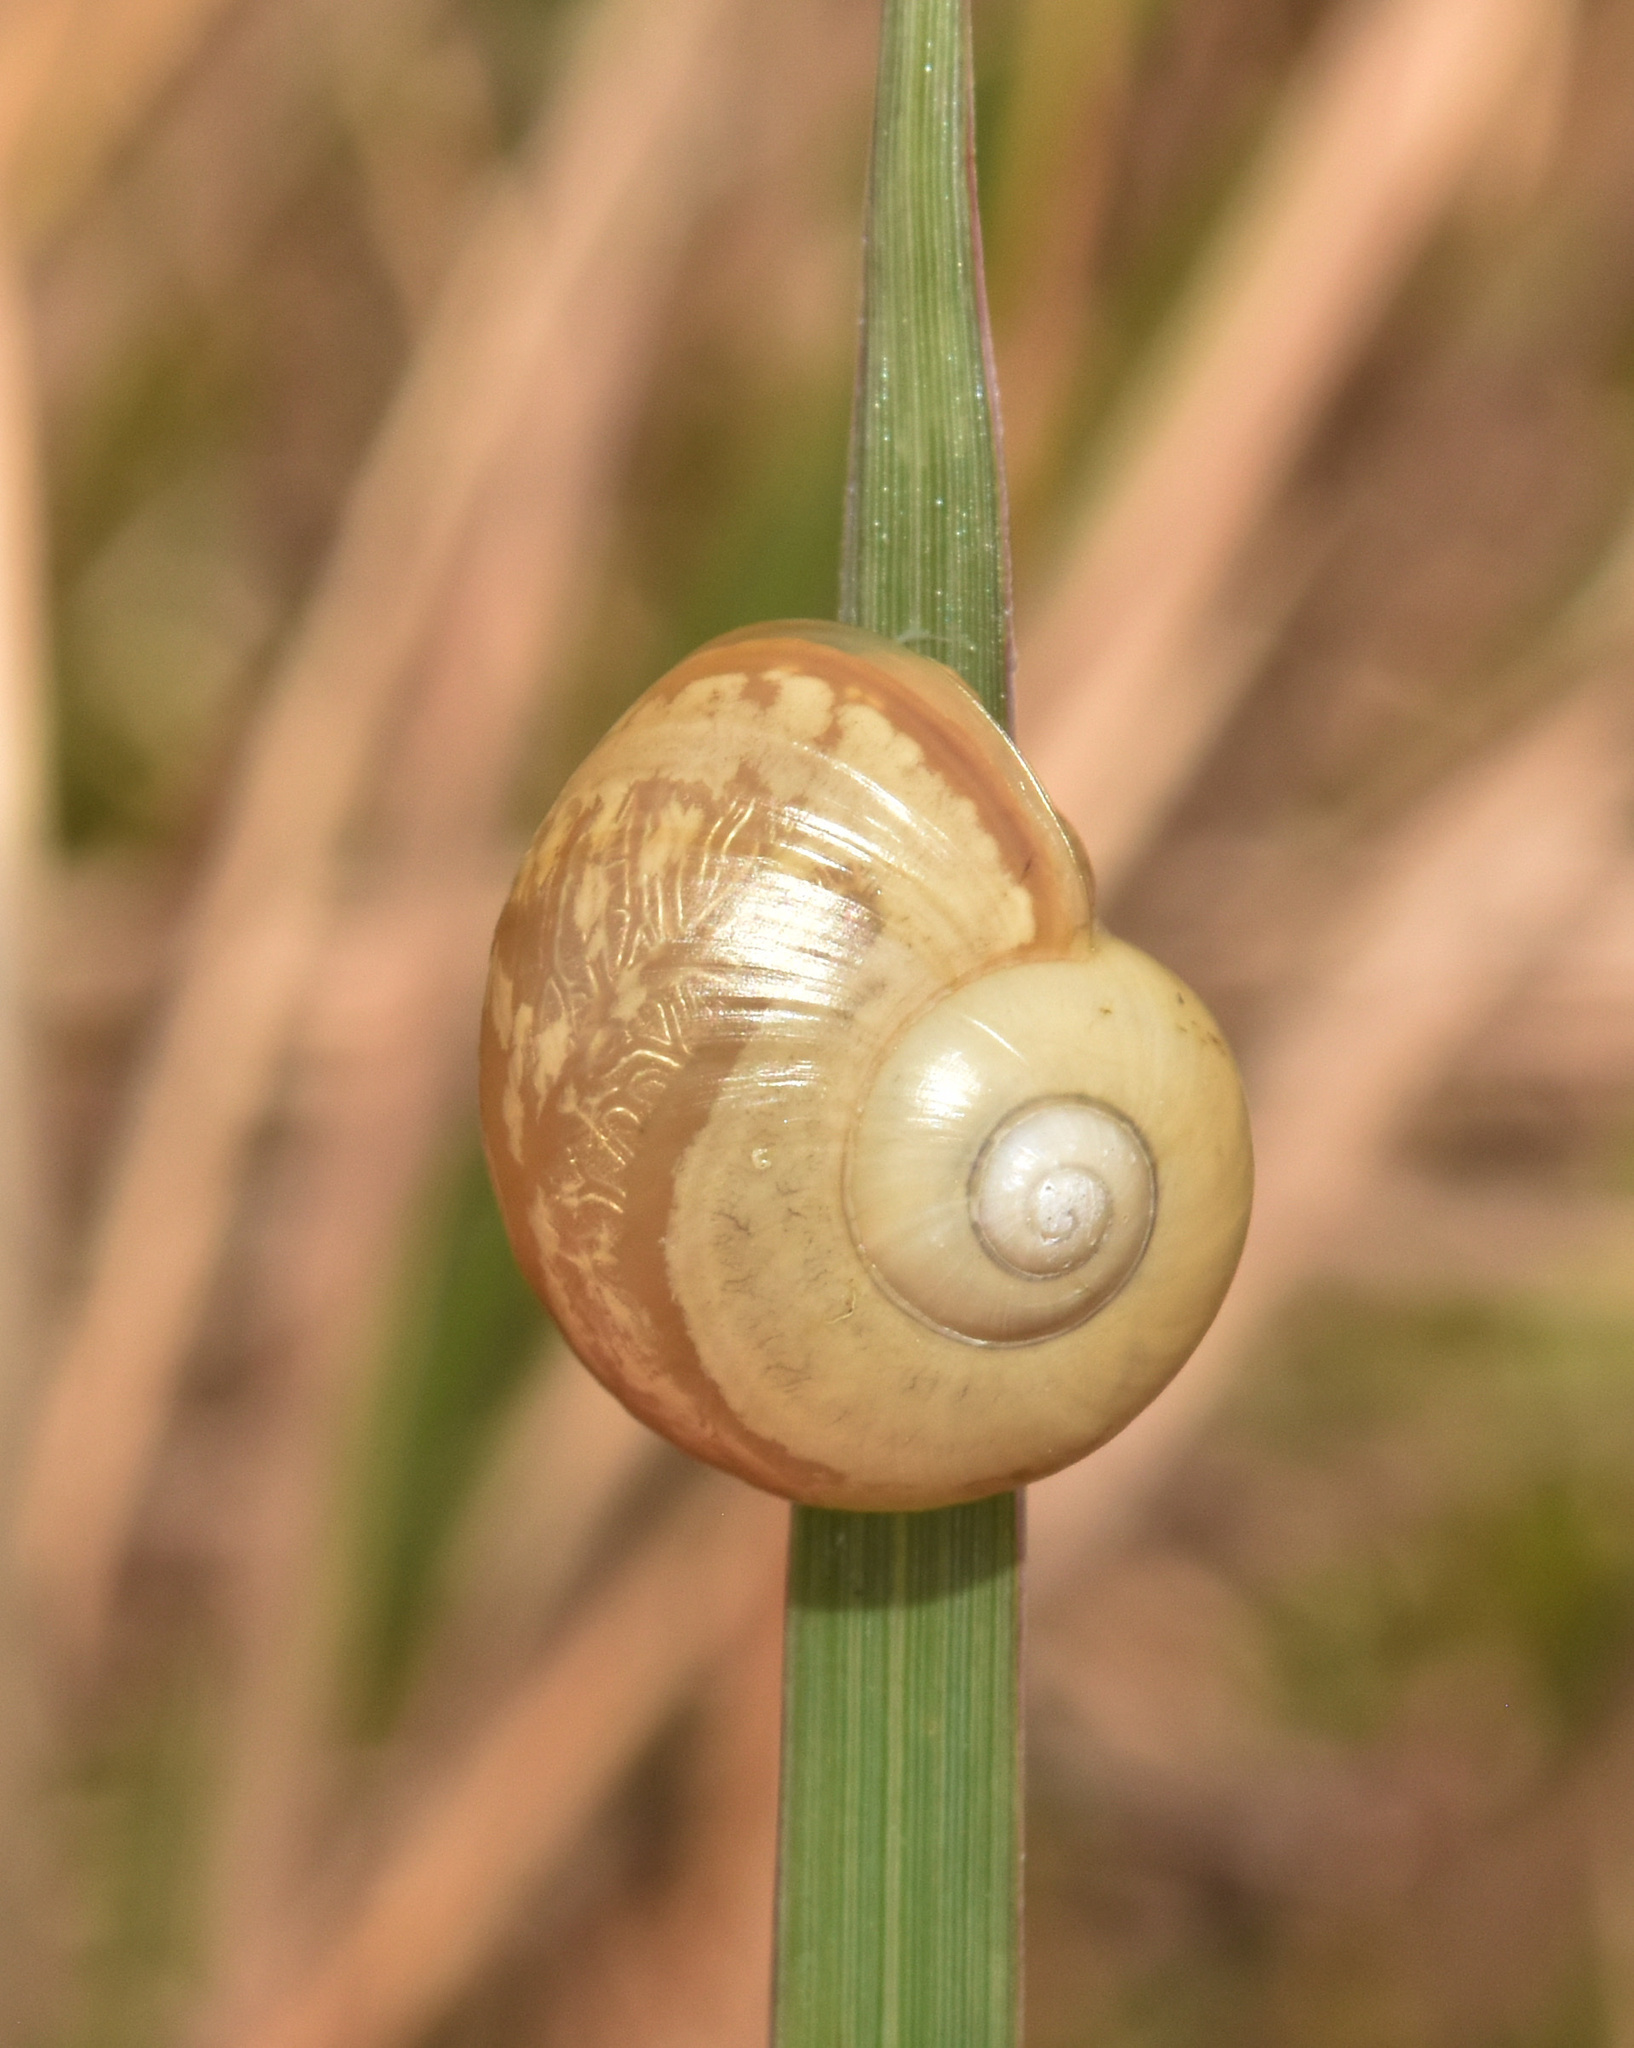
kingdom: Animalia
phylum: Mollusca
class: Gastropoda
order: Stylommatophora
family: Urocyclidae
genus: Microkerkus
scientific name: Microkerkus leucospira
